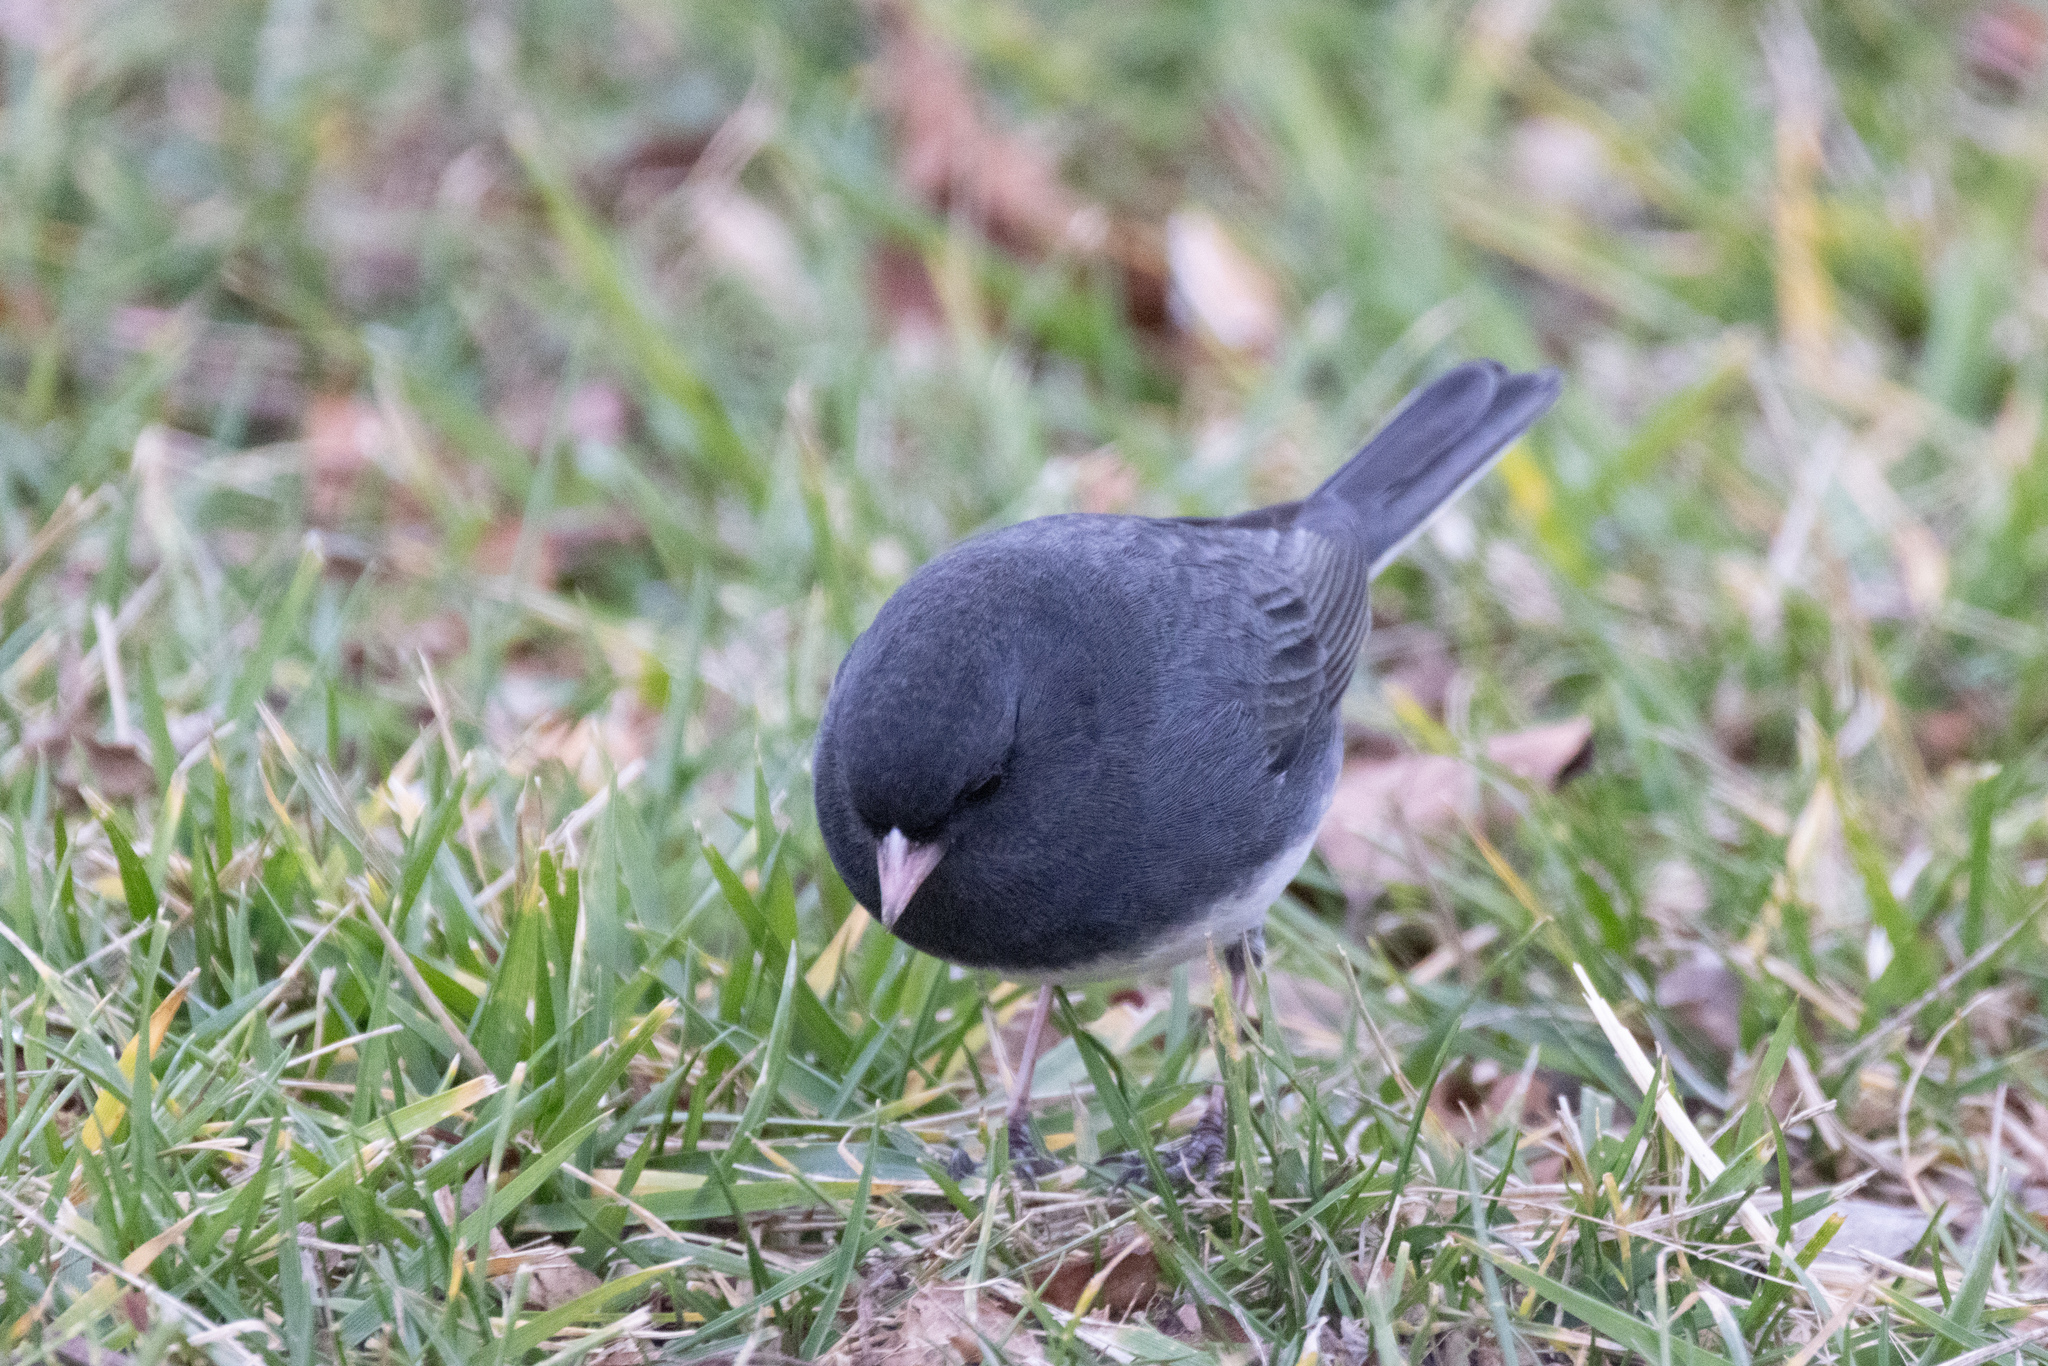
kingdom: Animalia
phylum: Chordata
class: Aves
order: Passeriformes
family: Passerellidae
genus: Junco
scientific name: Junco hyemalis
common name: Dark-eyed junco
